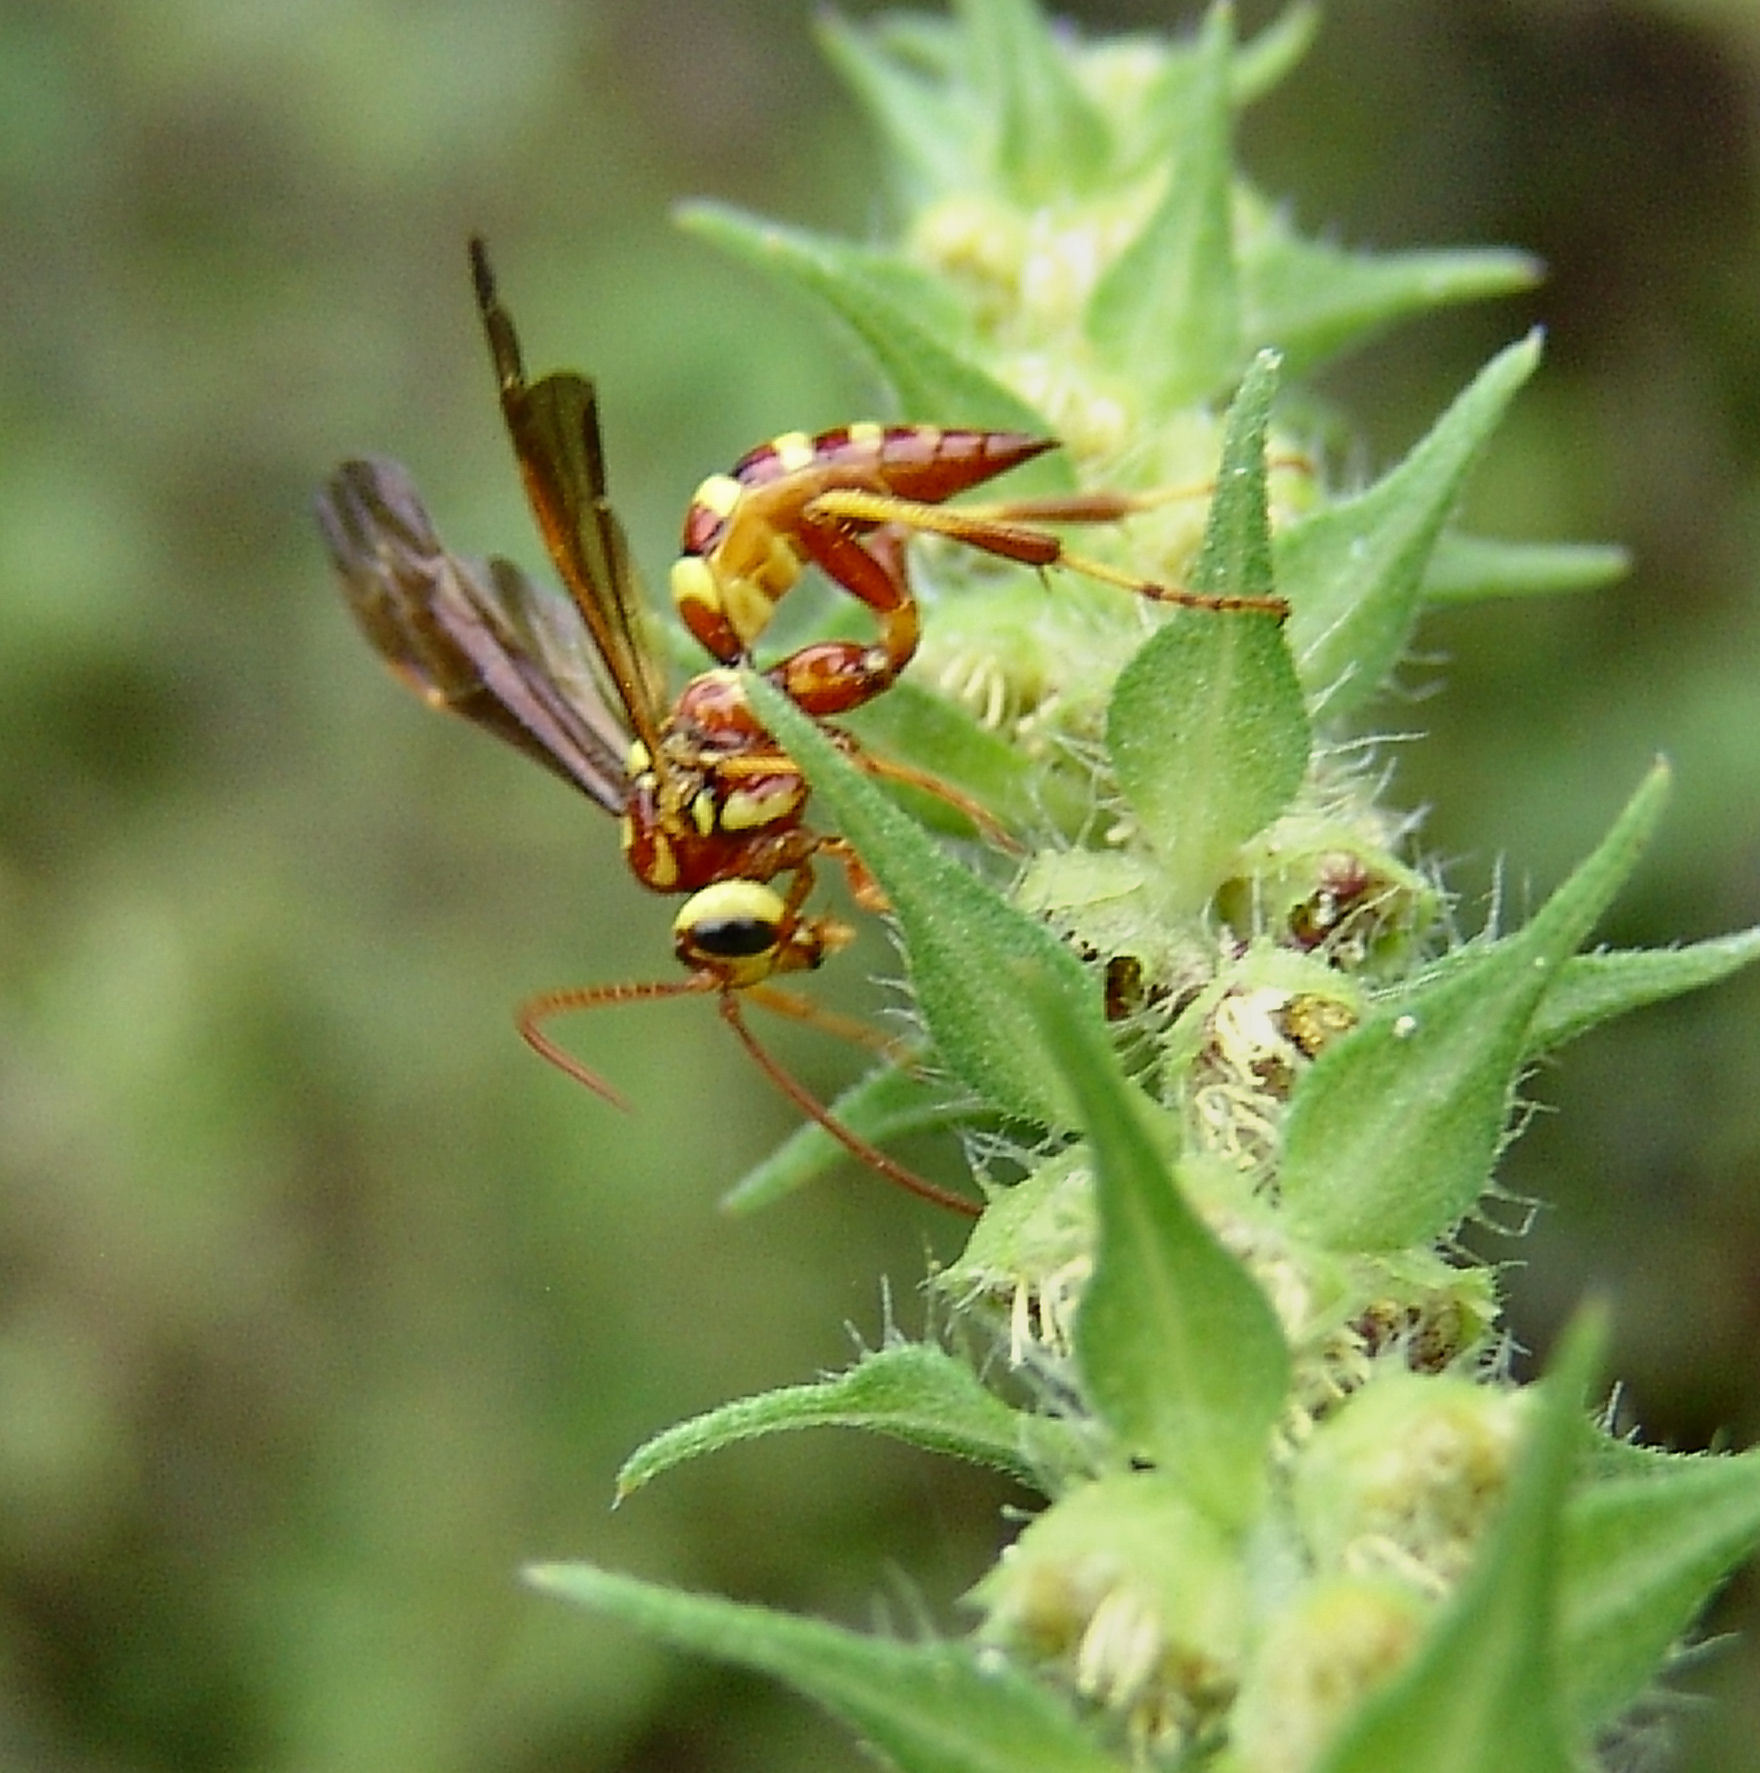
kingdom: Animalia
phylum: Arthropoda
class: Insecta
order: Hymenoptera
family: Ichneumonidae
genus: Ceratogastra
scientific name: Ceratogastra ornata
